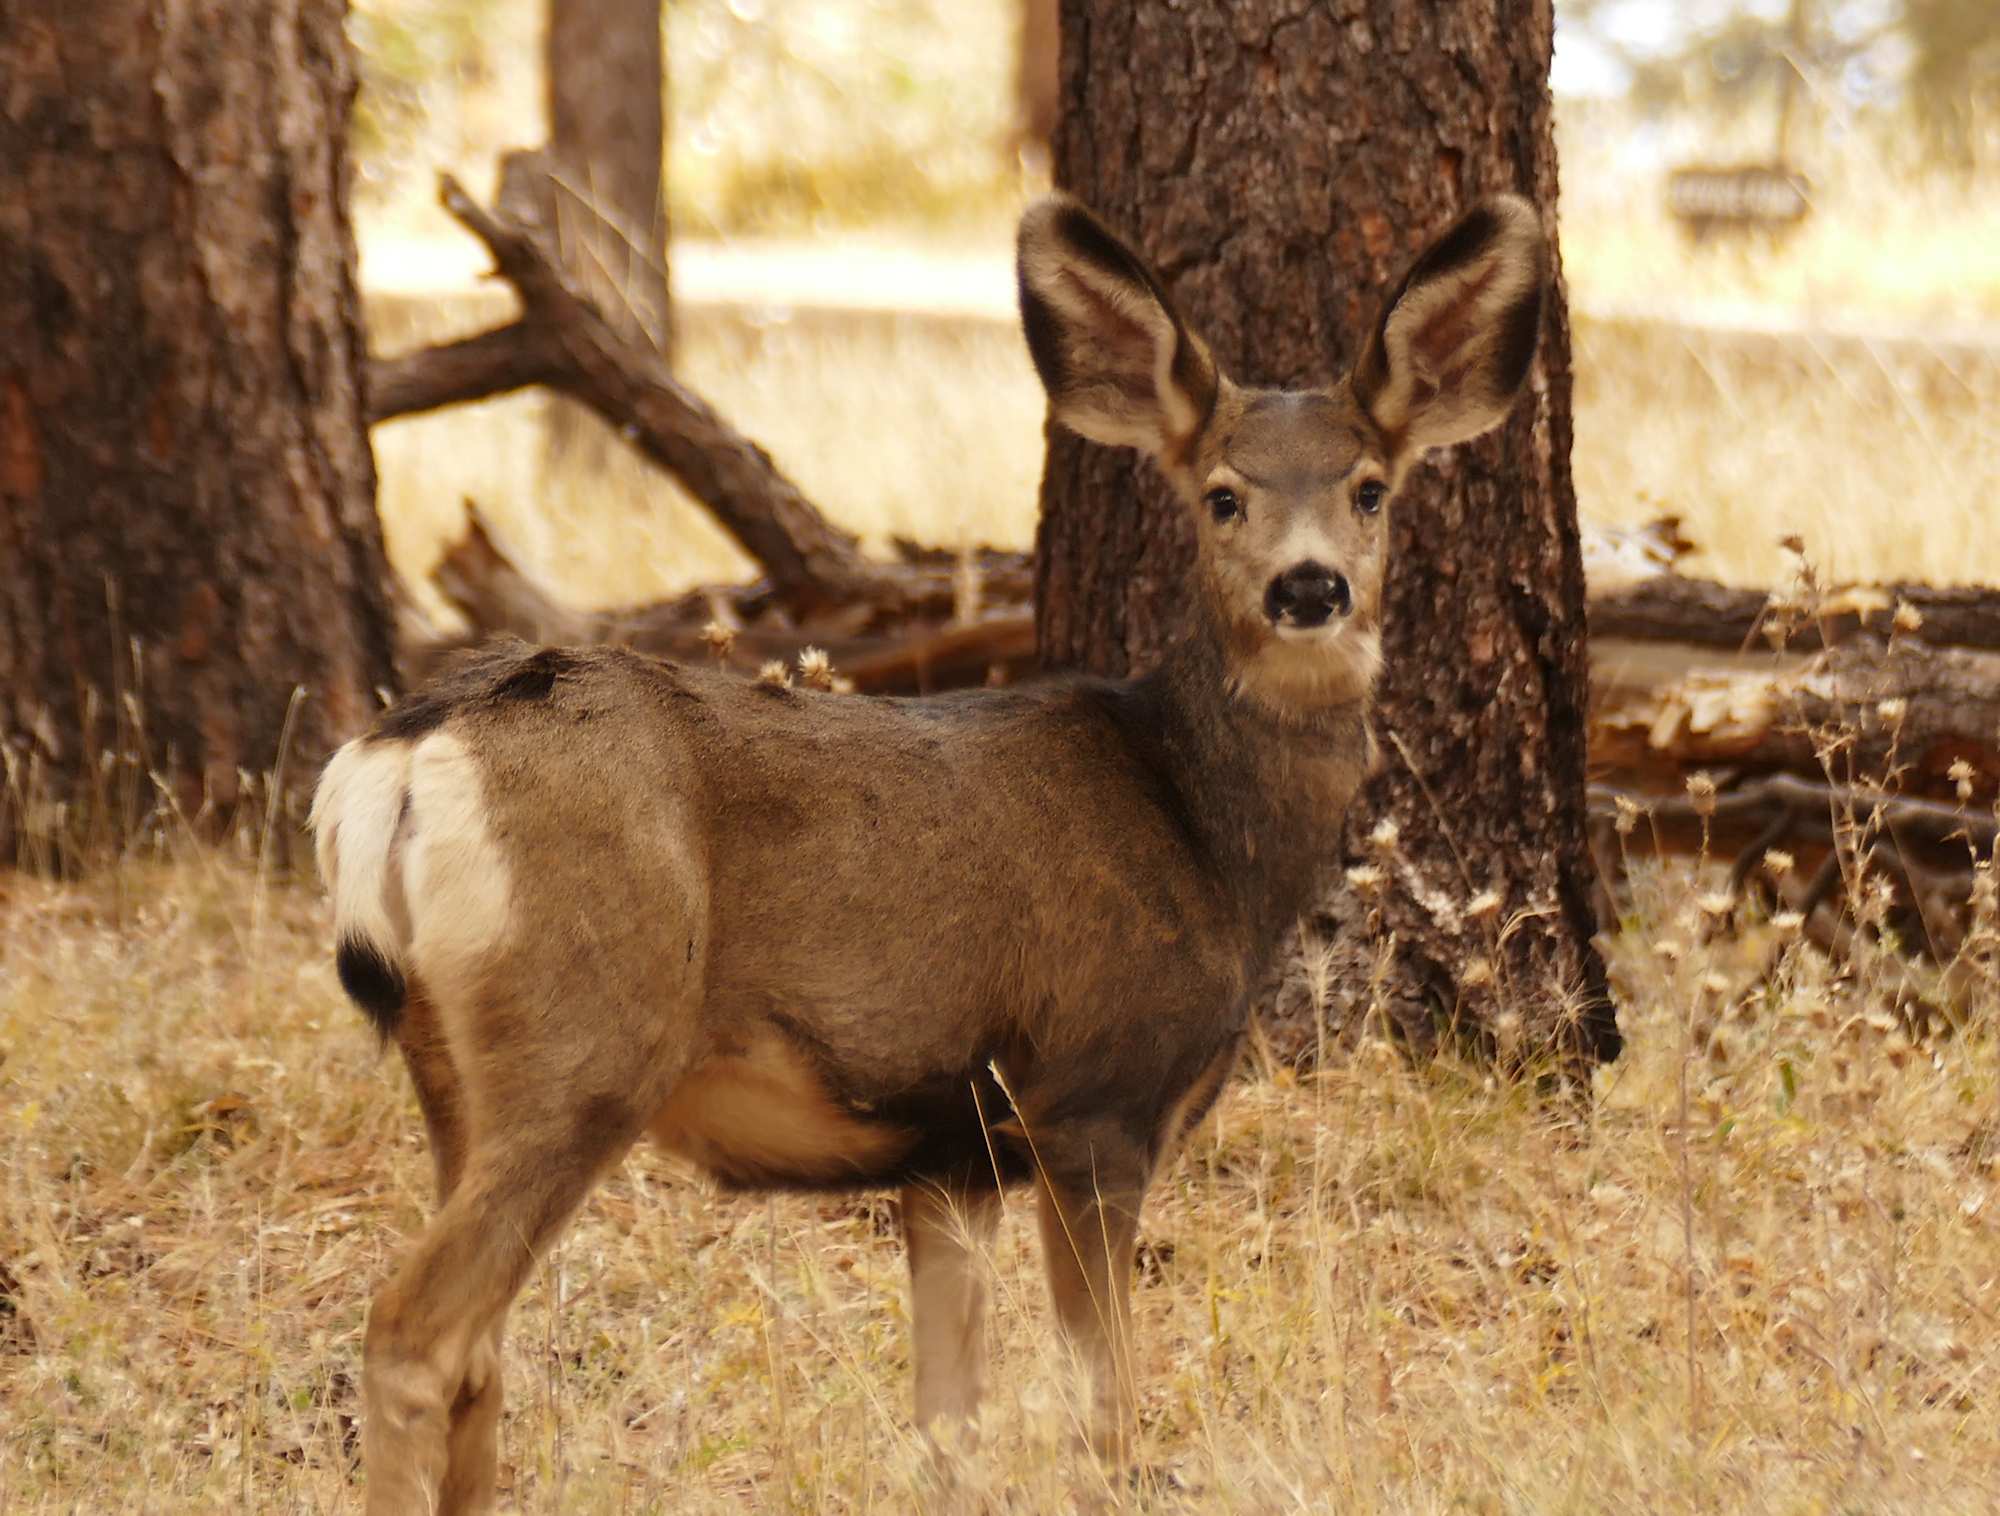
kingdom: Animalia
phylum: Chordata
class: Mammalia
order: Artiodactyla
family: Cervidae
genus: Odocoileus
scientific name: Odocoileus hemionus
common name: Mule deer
